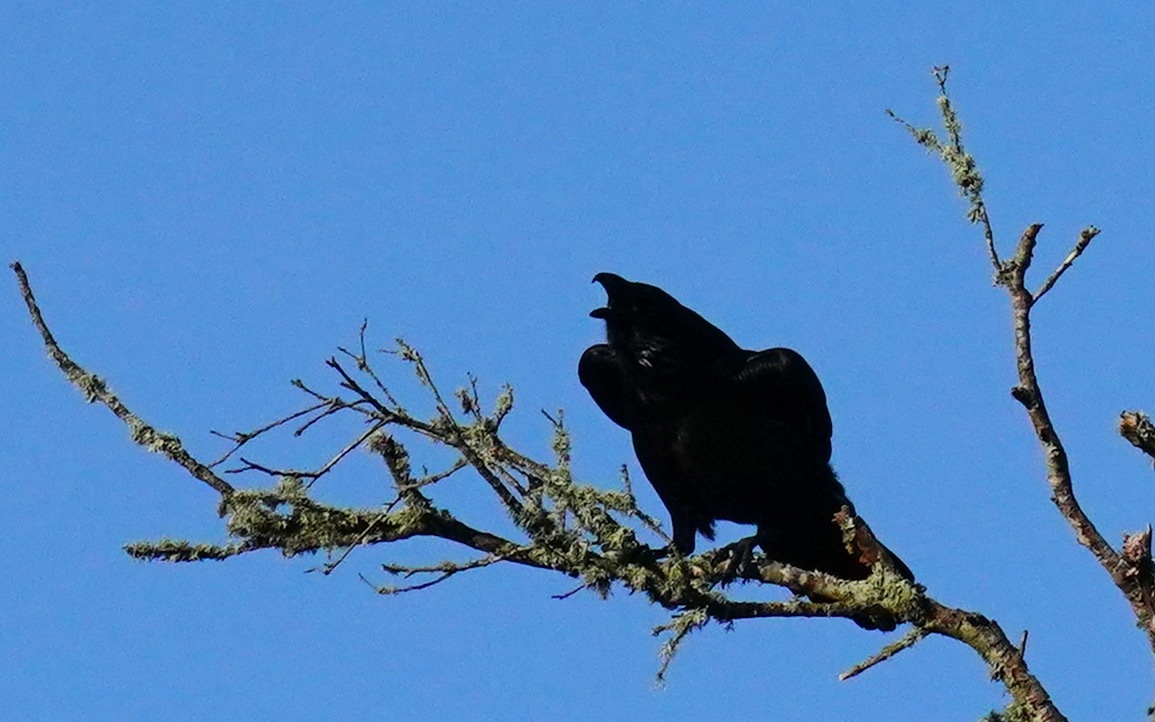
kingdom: Animalia
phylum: Chordata
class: Aves
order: Passeriformes
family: Corvidae
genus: Corvus
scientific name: Corvus corax
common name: Common raven
